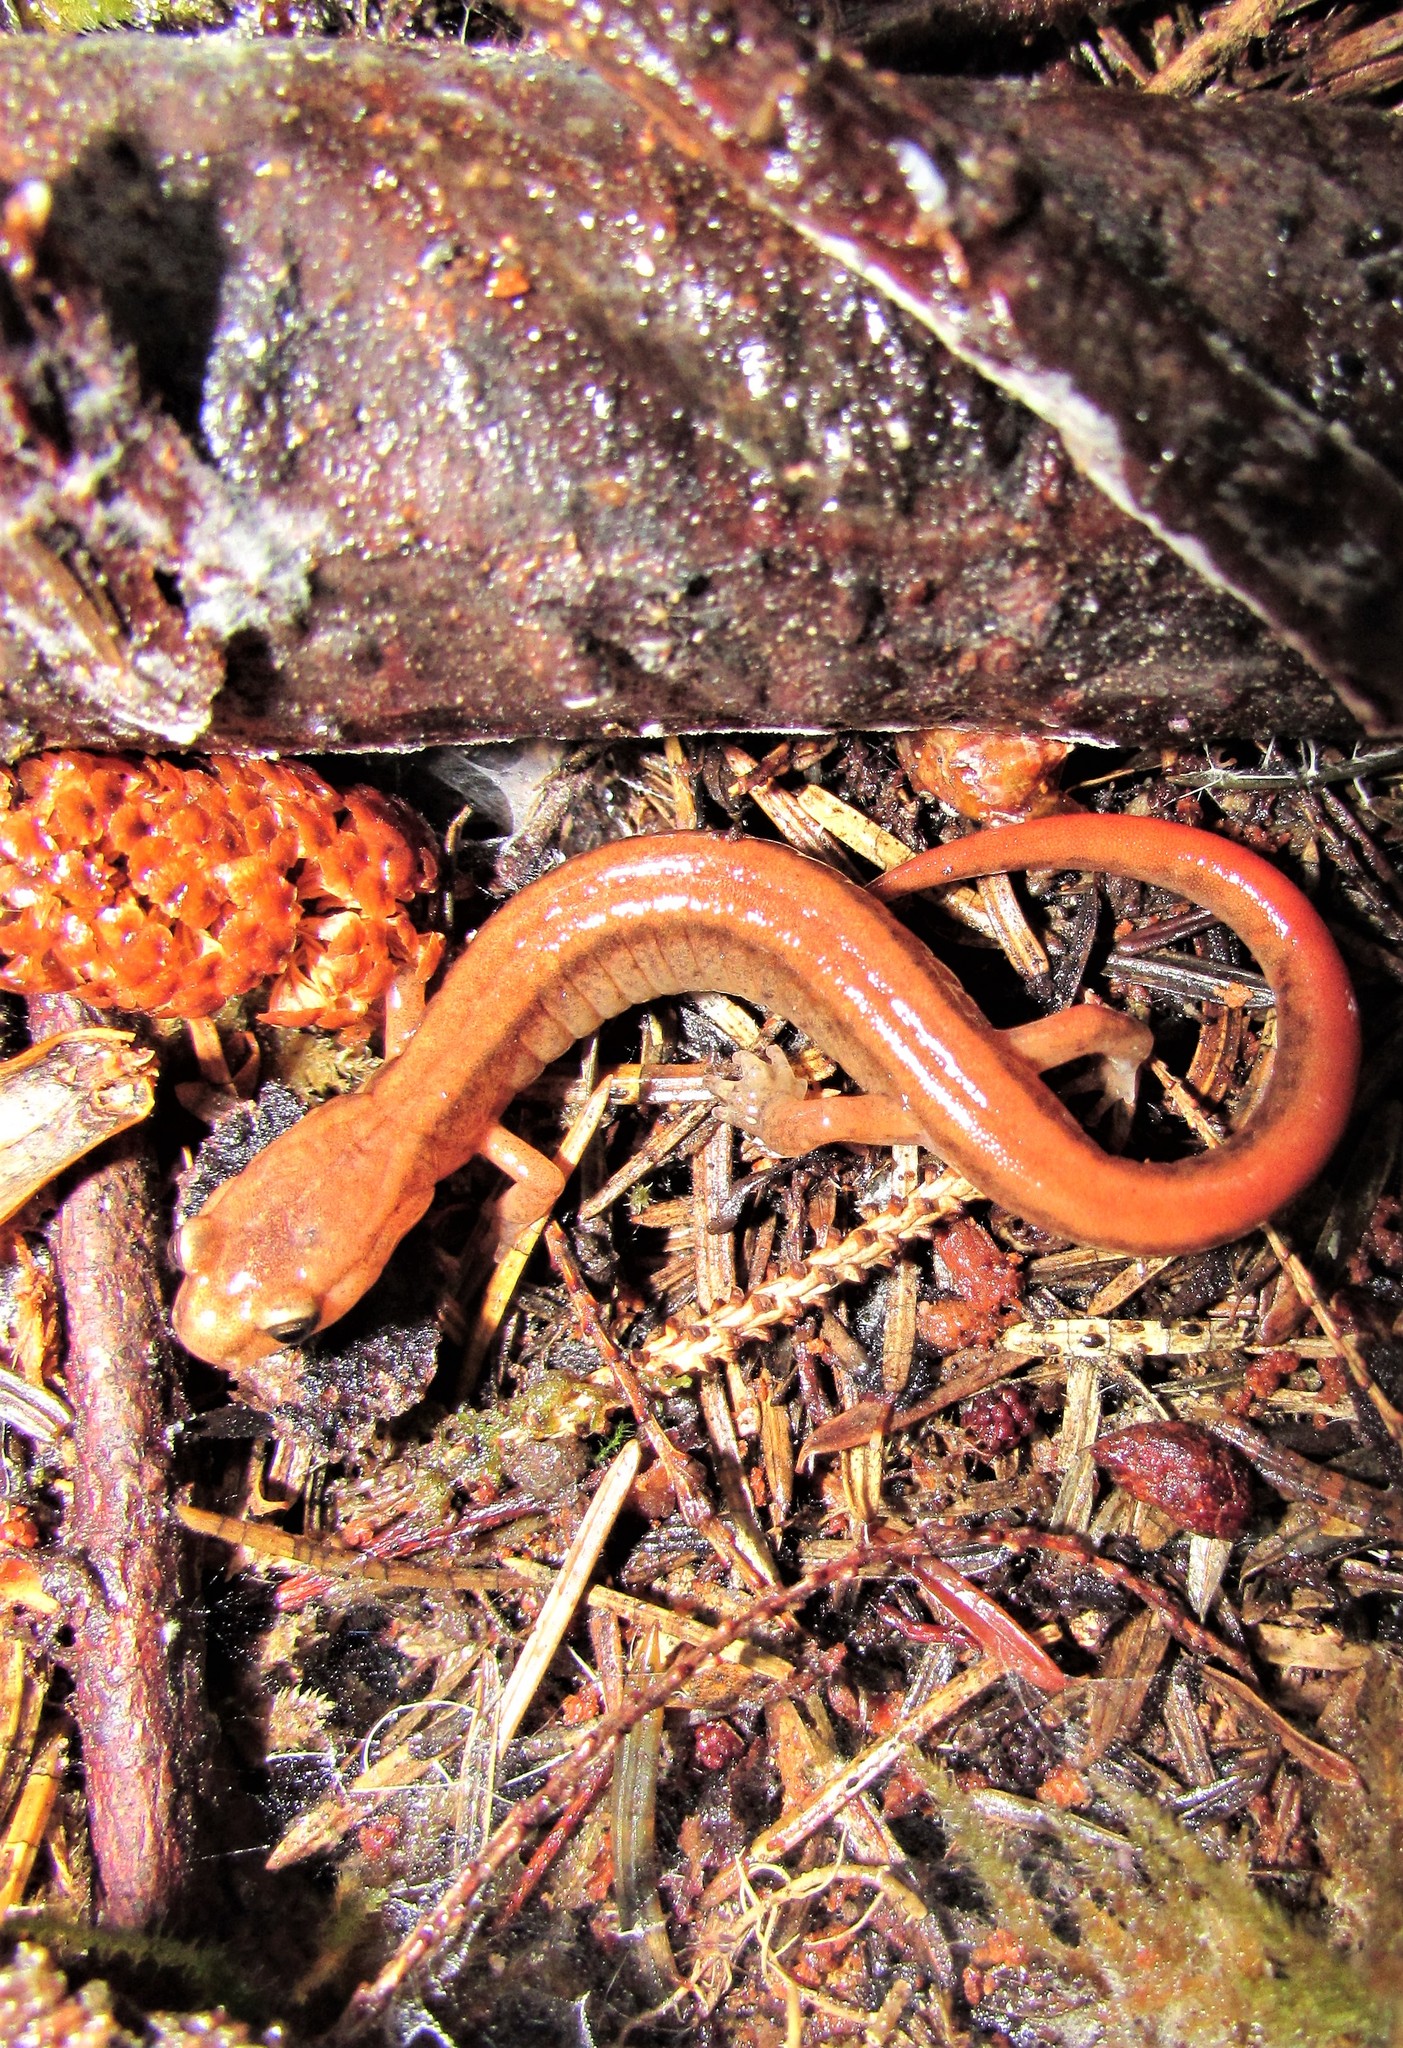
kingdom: Animalia
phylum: Chordata
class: Amphibia
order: Caudata
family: Plethodontidae
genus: Plethodon
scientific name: Plethodon dunni
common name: Dunn's salamander
